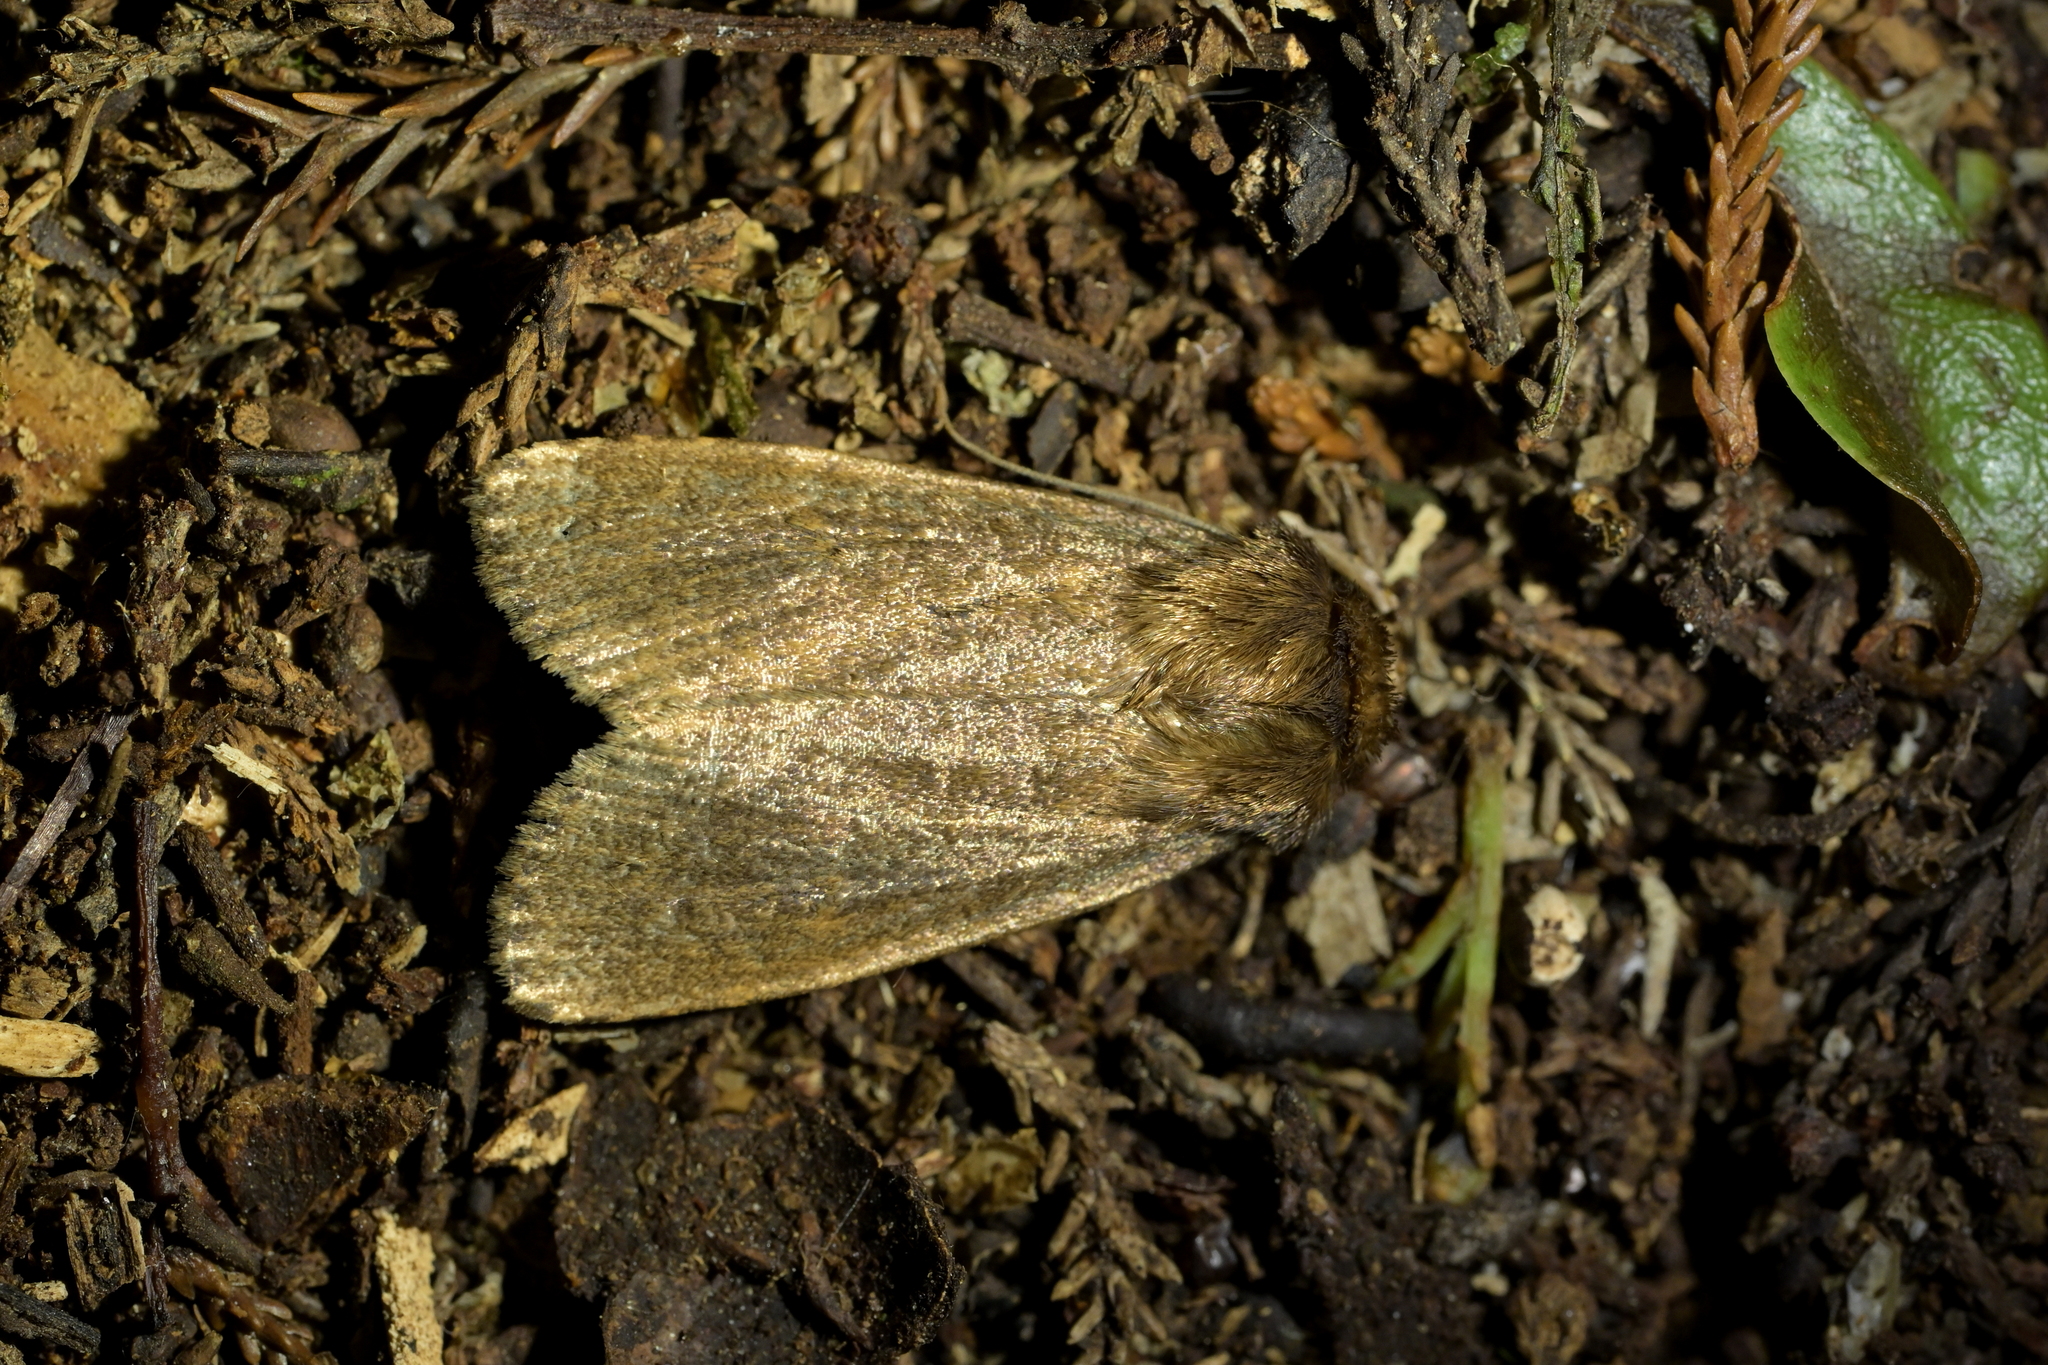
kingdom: Animalia
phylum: Arthropoda
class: Insecta
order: Lepidoptera
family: Noctuidae
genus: Bityla
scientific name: Bityla defigurata
